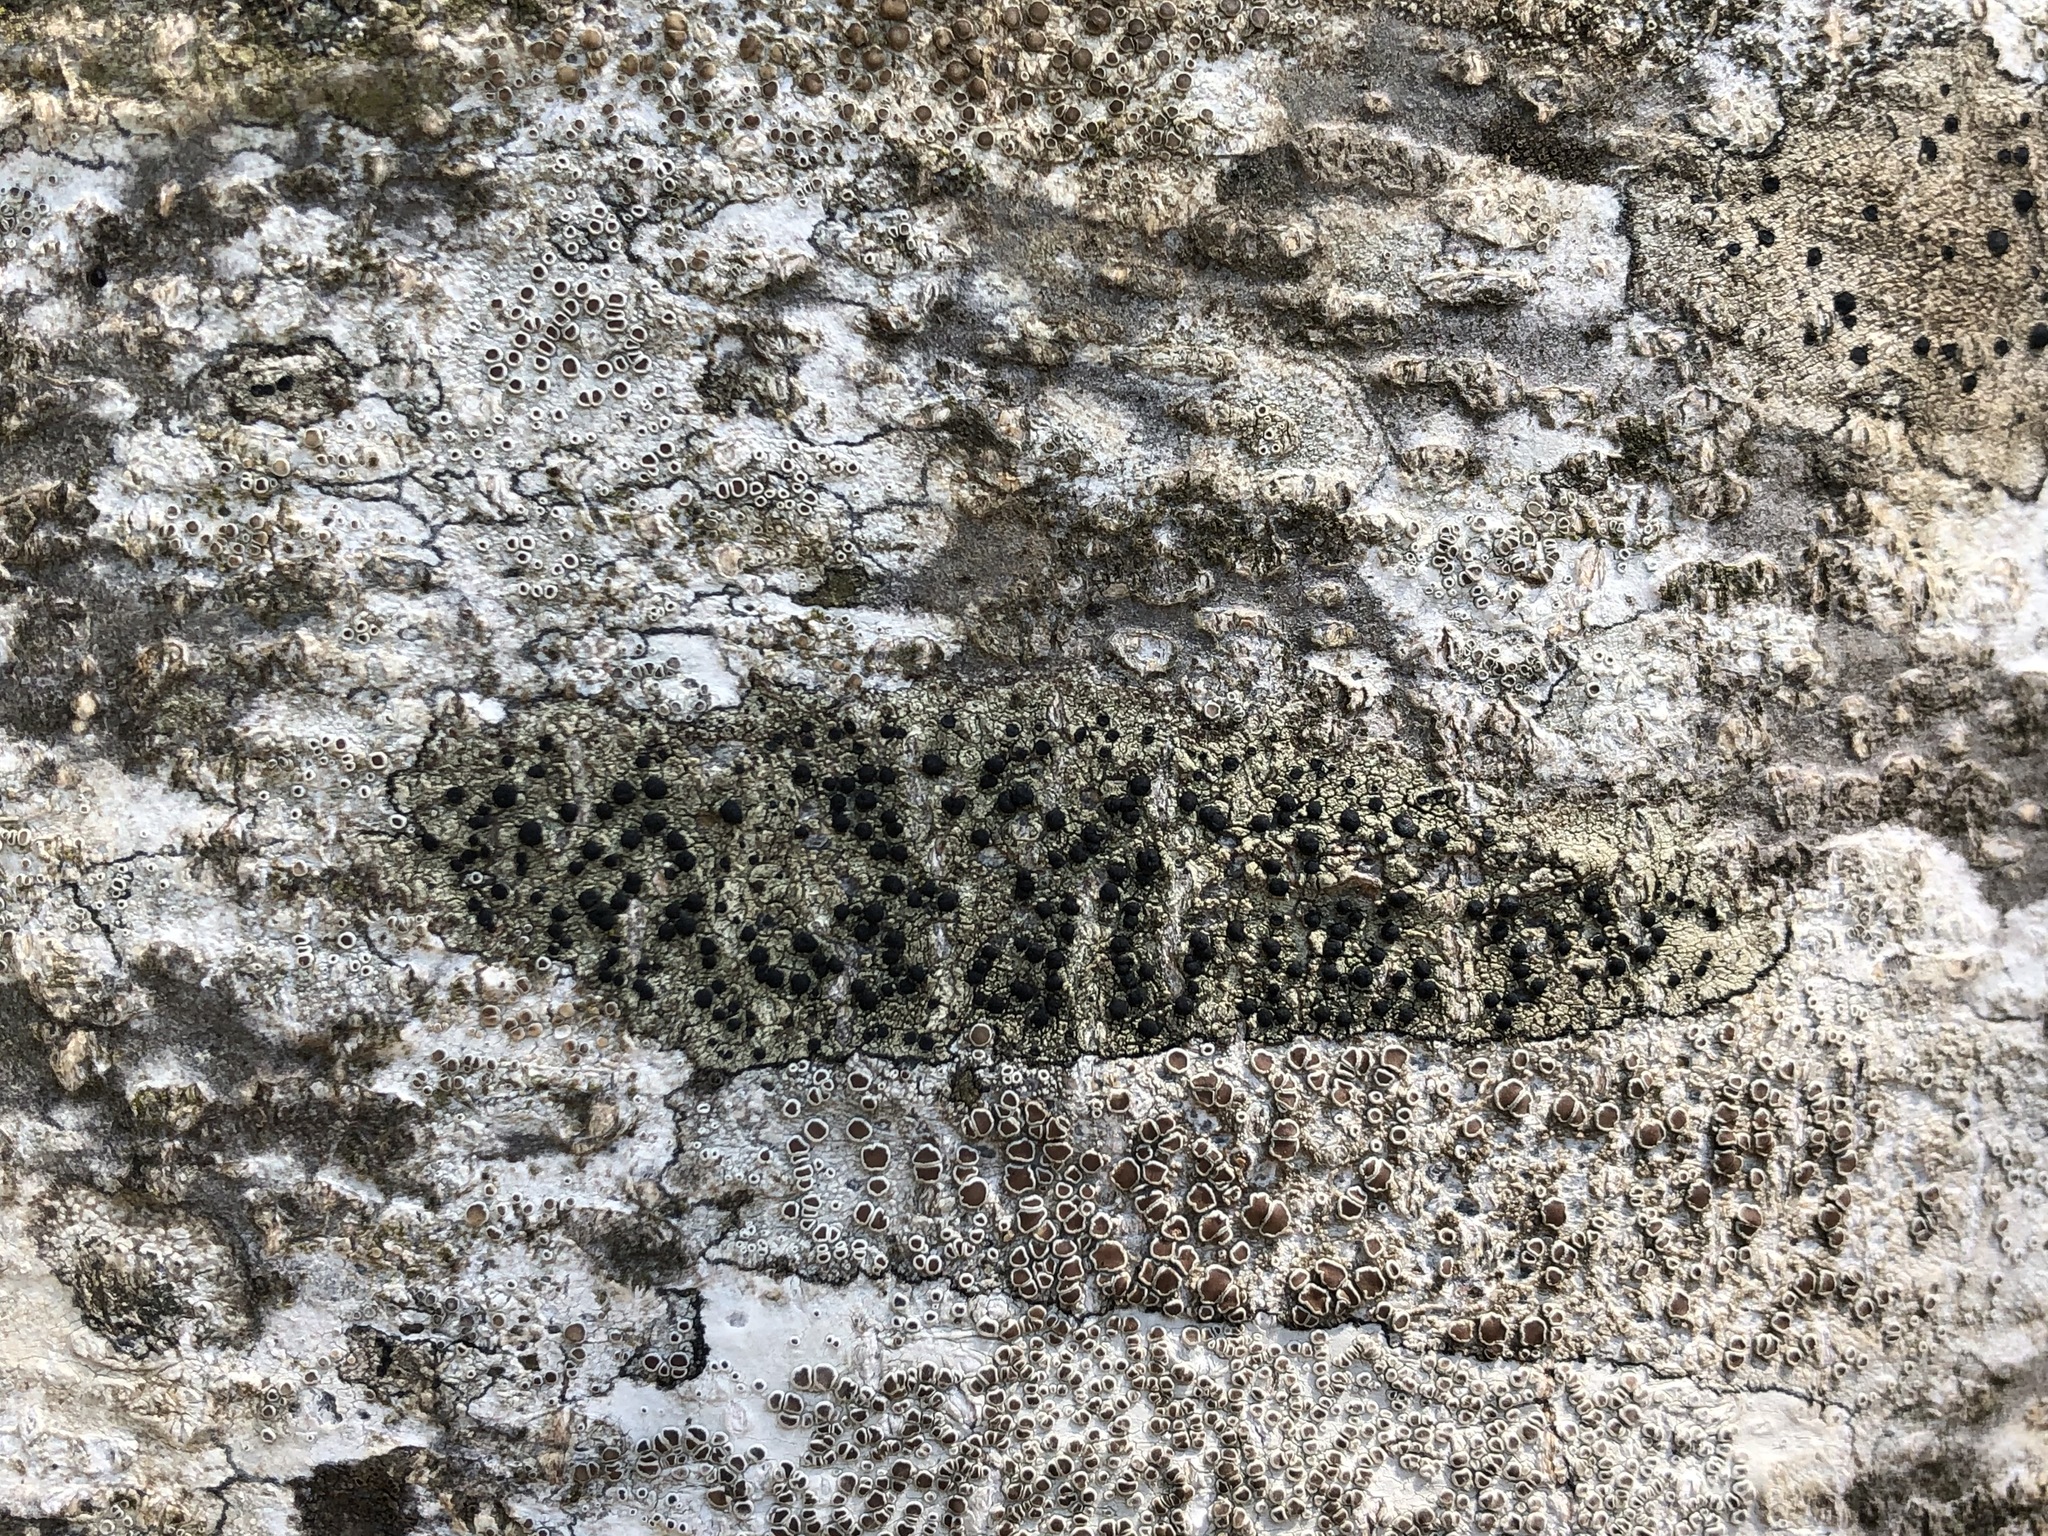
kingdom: Fungi
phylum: Ascomycota
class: Lecanoromycetes
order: Lecanorales
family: Lecanoraceae
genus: Lecidella
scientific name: Lecidella elaeochroma
